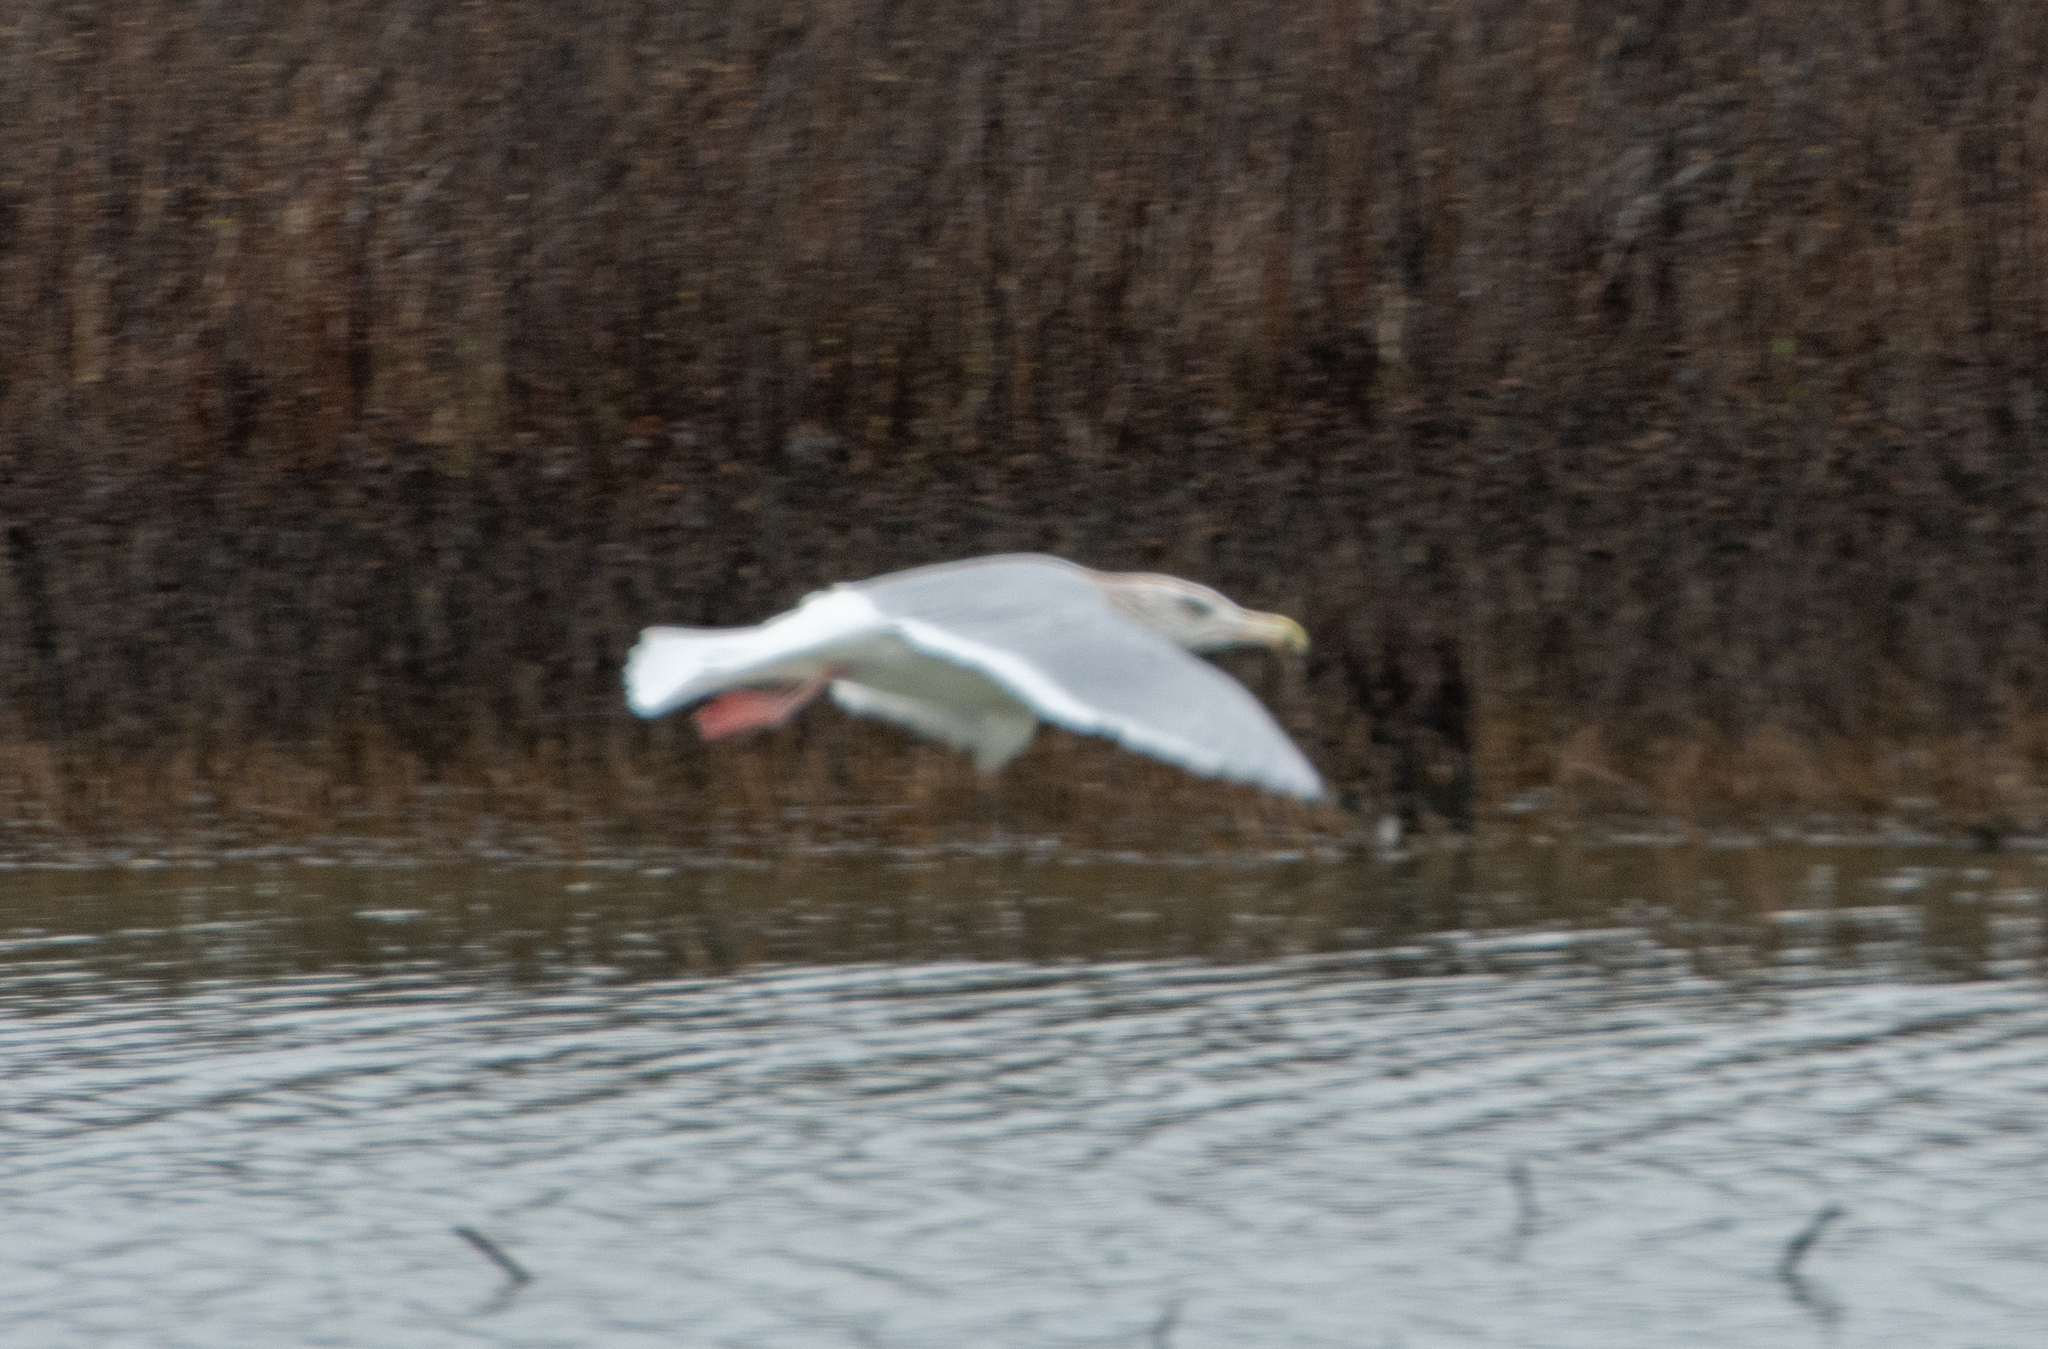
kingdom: Animalia
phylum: Chordata
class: Aves
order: Charadriiformes
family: Laridae
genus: Larus
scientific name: Larus glaucescens
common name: Glaucous-winged gull
